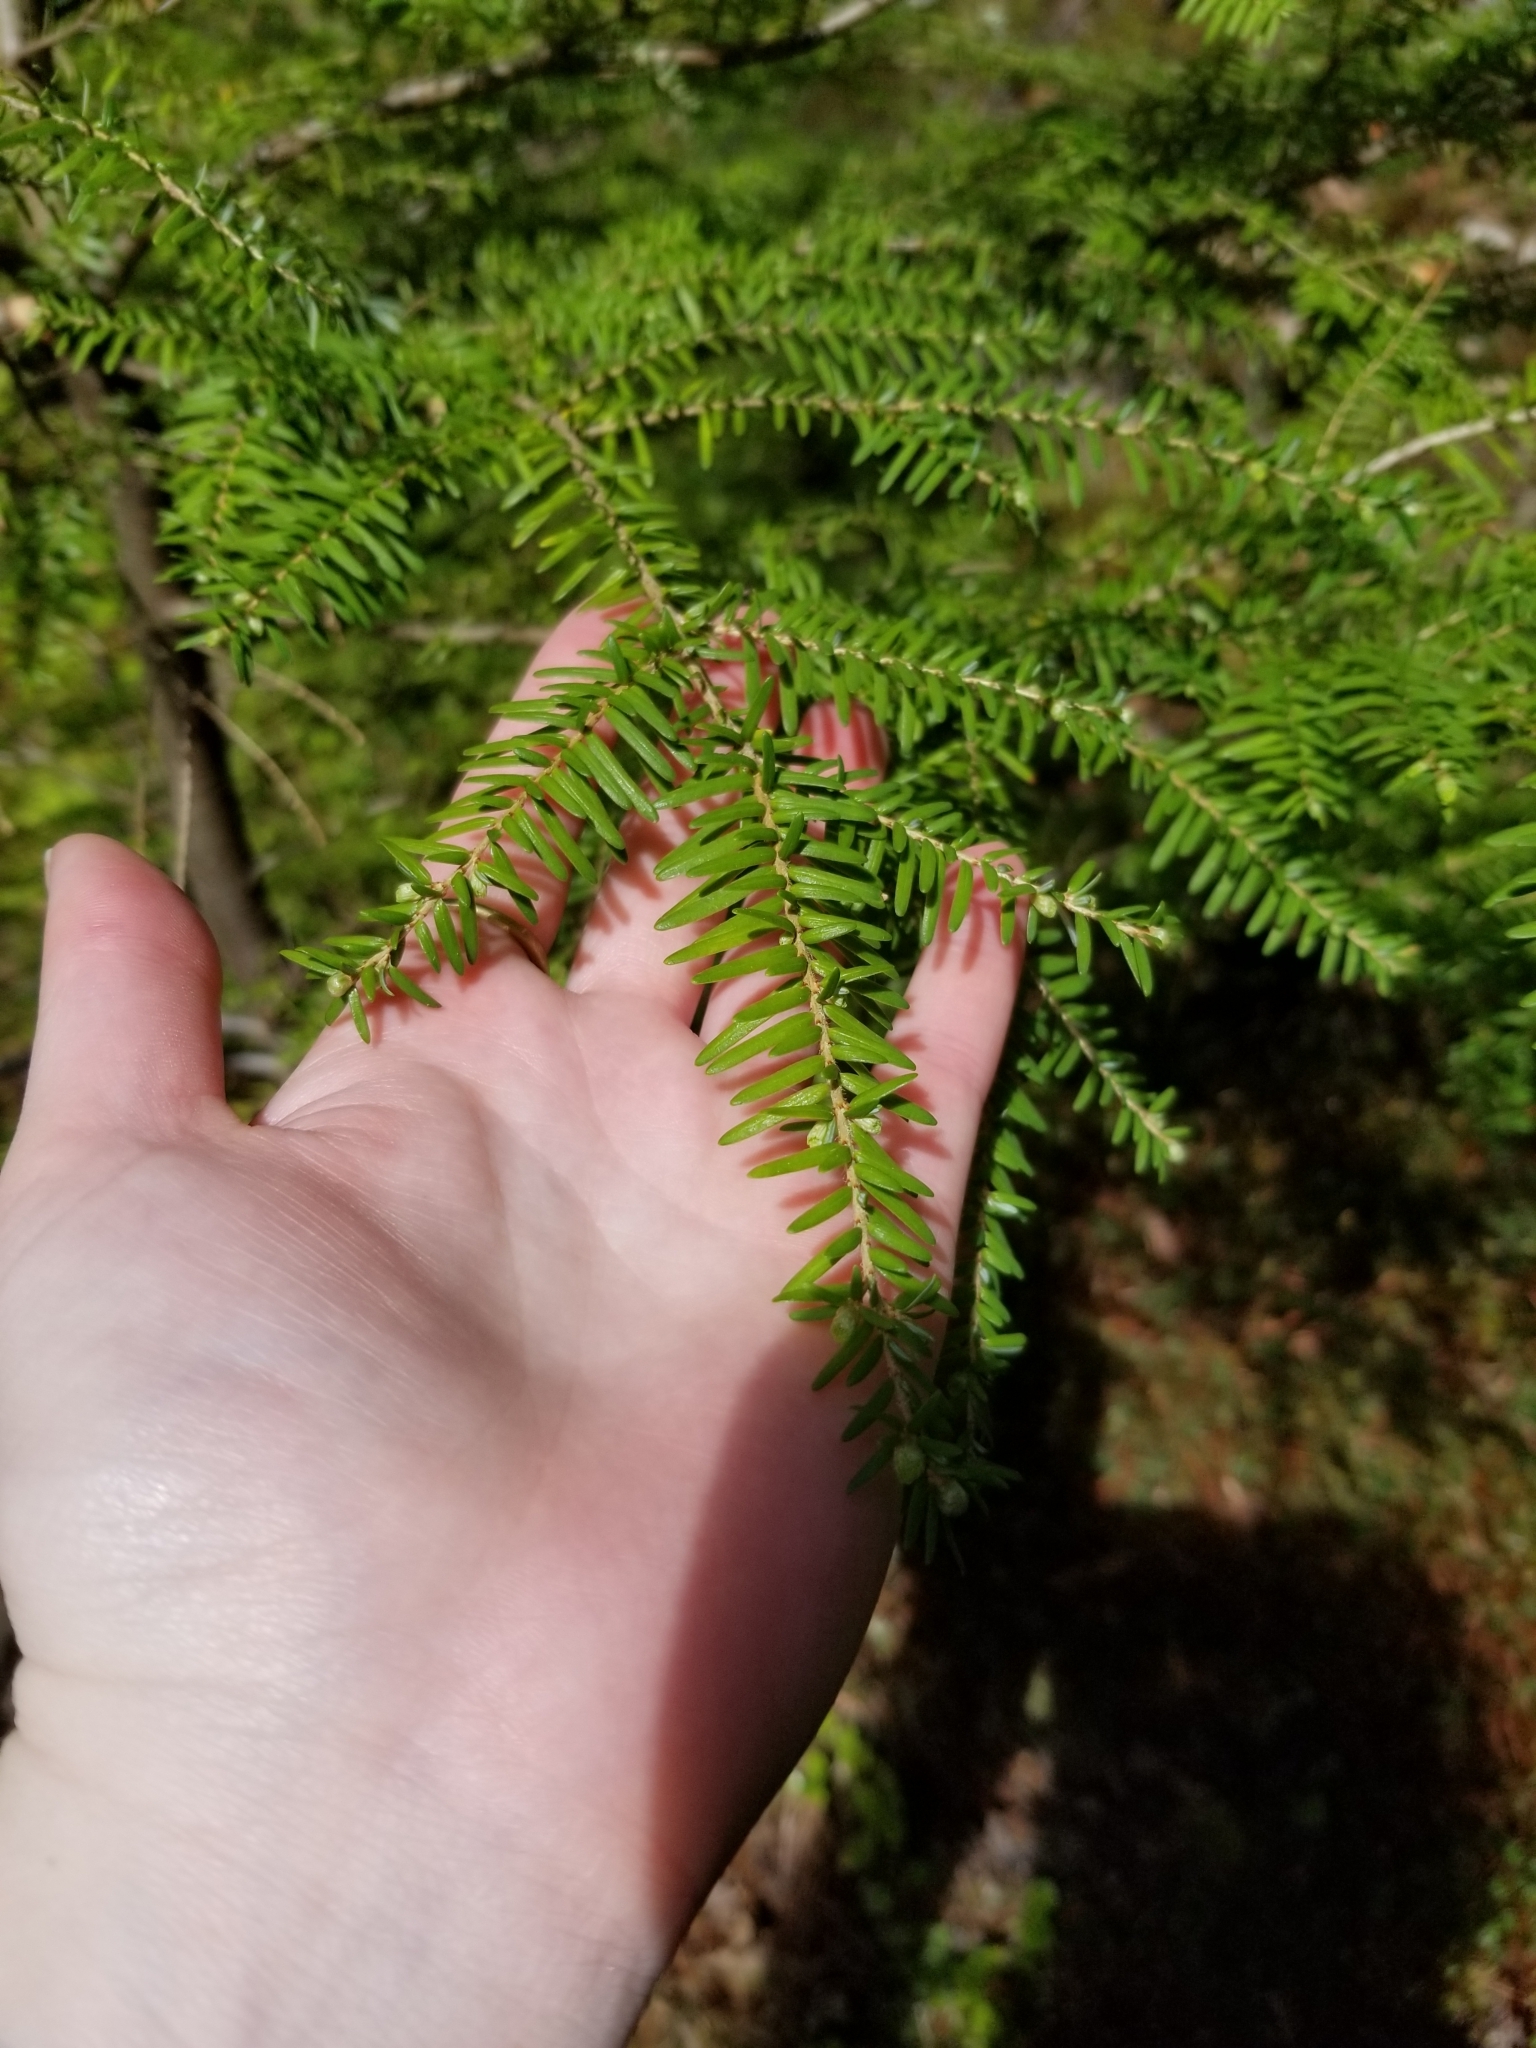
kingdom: Plantae
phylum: Tracheophyta
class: Pinopsida
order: Pinales
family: Pinaceae
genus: Tsuga
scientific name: Tsuga heterophylla
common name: Western hemlock
